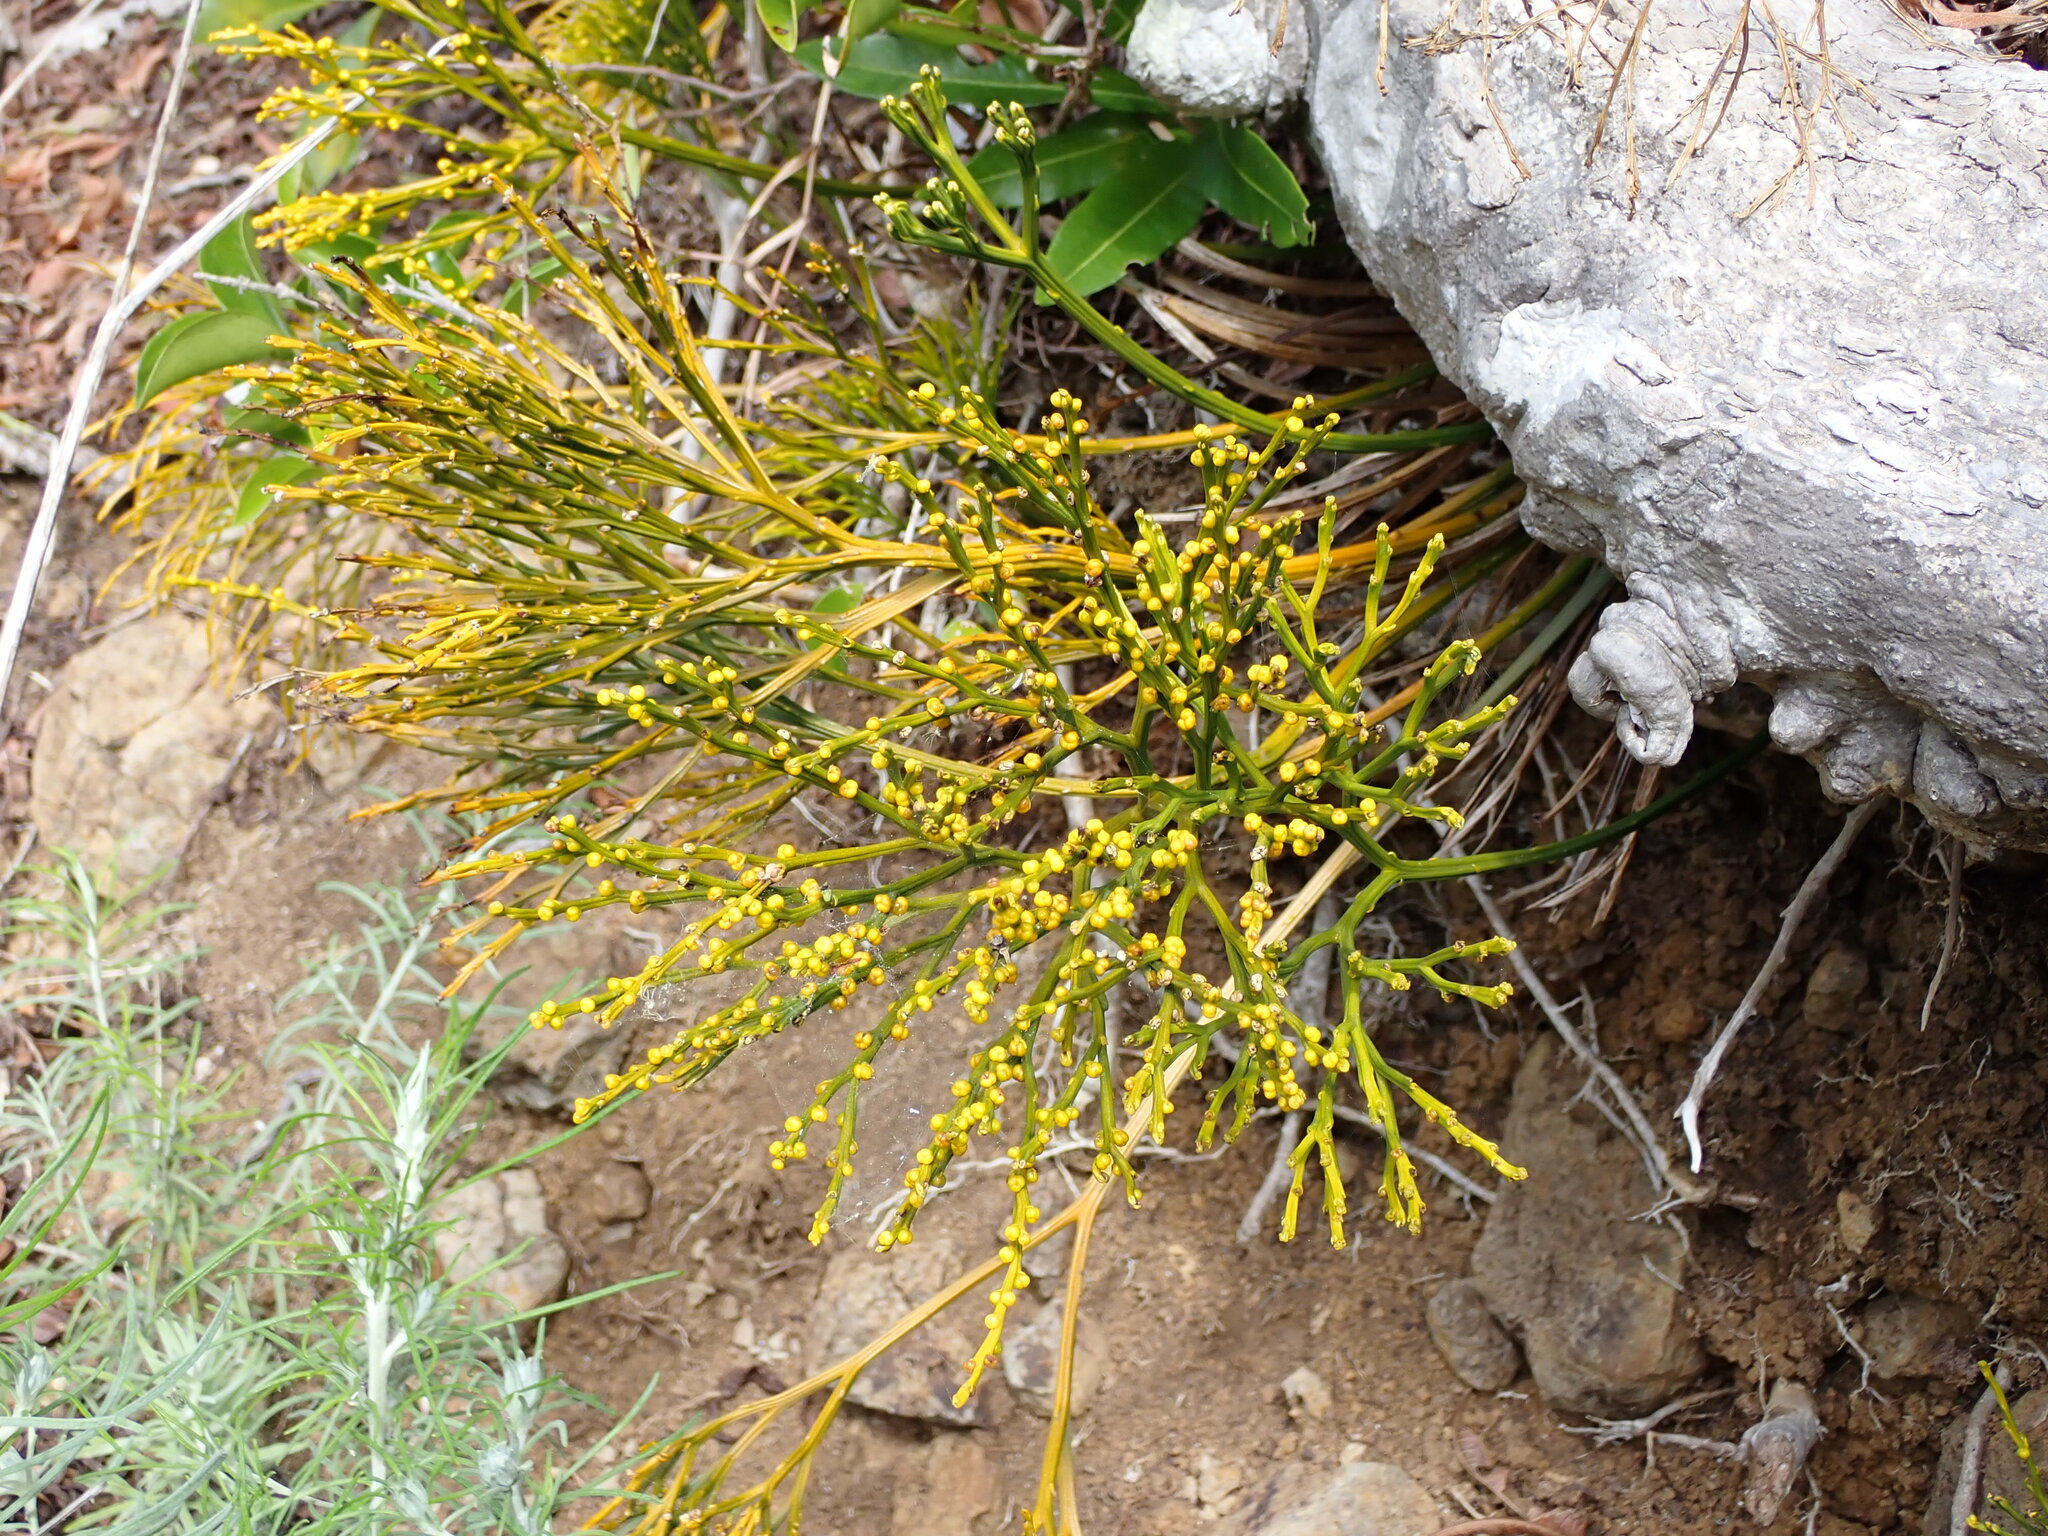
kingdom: Plantae
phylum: Tracheophyta
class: Polypodiopsida
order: Psilotales
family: Psilotaceae
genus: Psilotum
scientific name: Psilotum nudum
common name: Skeleton fork fern
